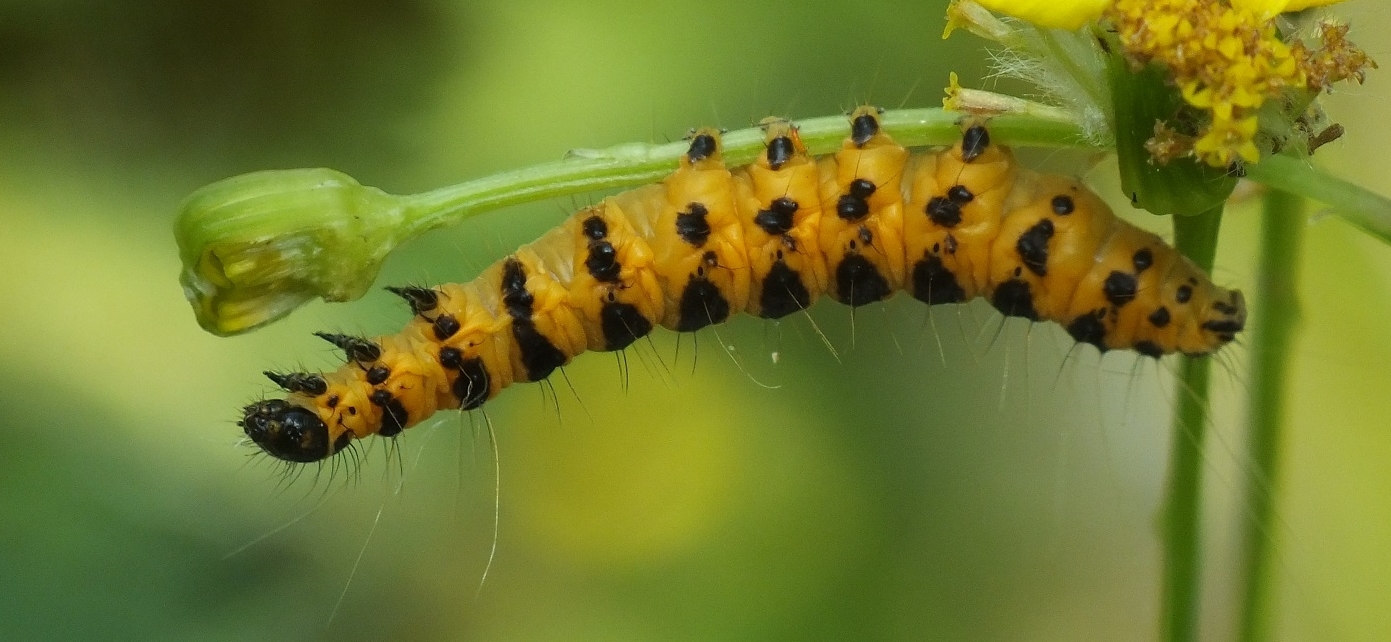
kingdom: Animalia
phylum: Arthropoda
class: Insecta
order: Lepidoptera
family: Erebidae
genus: Tyria
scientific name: Tyria jacobaeae
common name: Cinnabar
